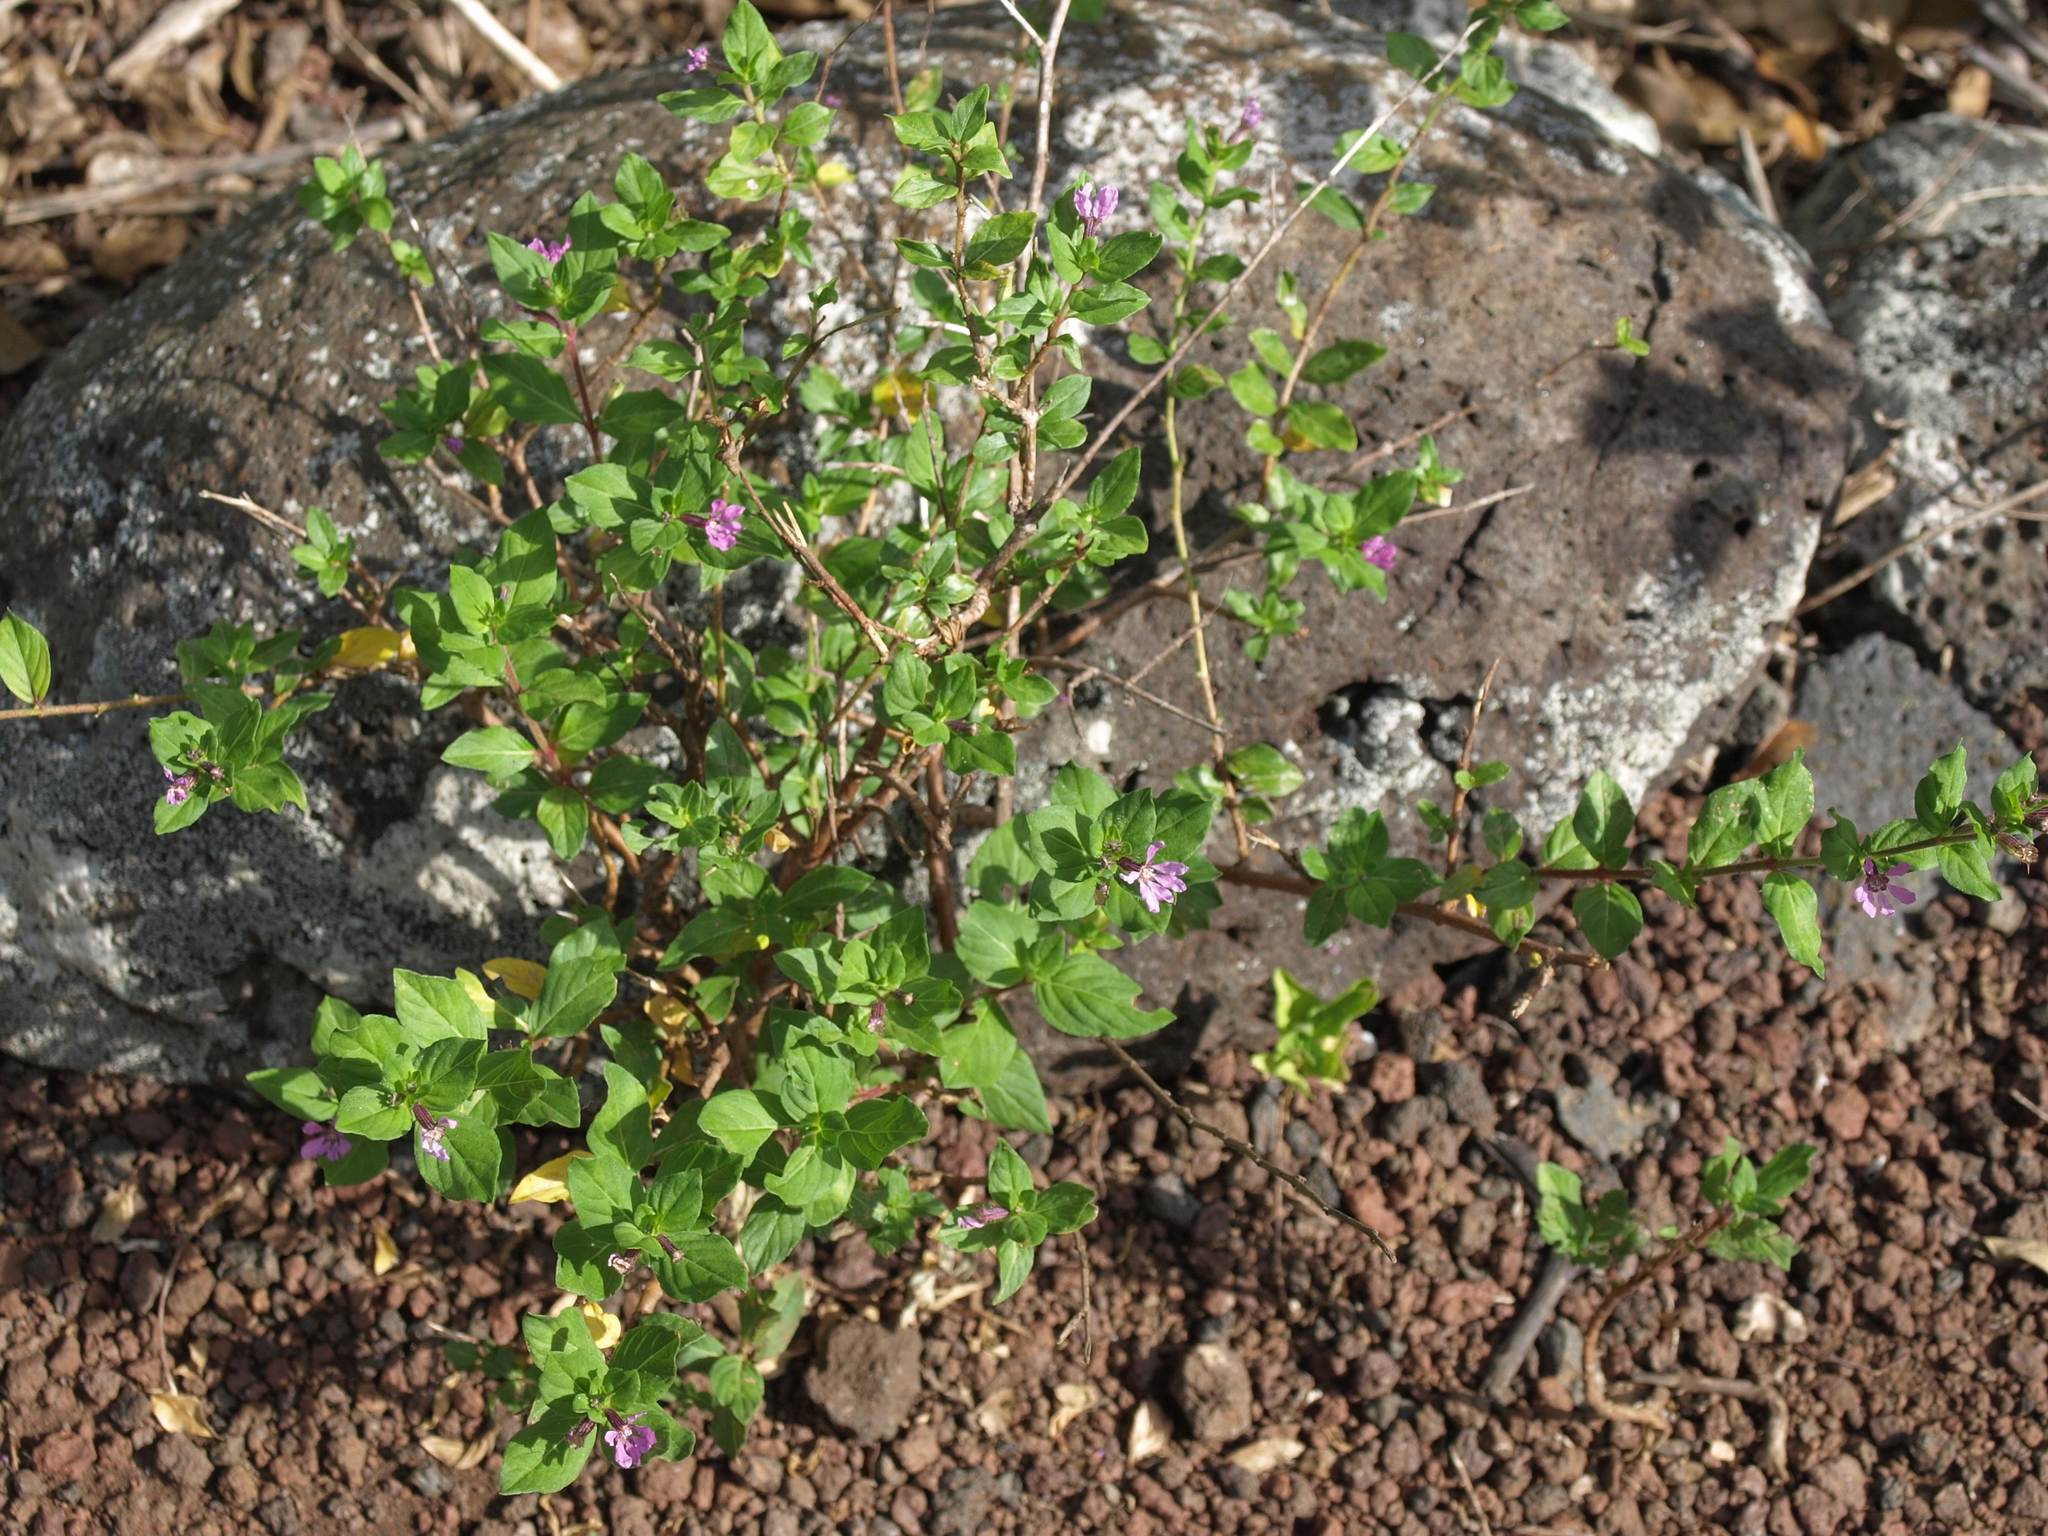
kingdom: Plantae
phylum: Tracheophyta
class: Magnoliopsida
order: Myrtales
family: Lythraceae
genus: Cuphea
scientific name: Cuphea carthagenensis
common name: Colombian waxweed
